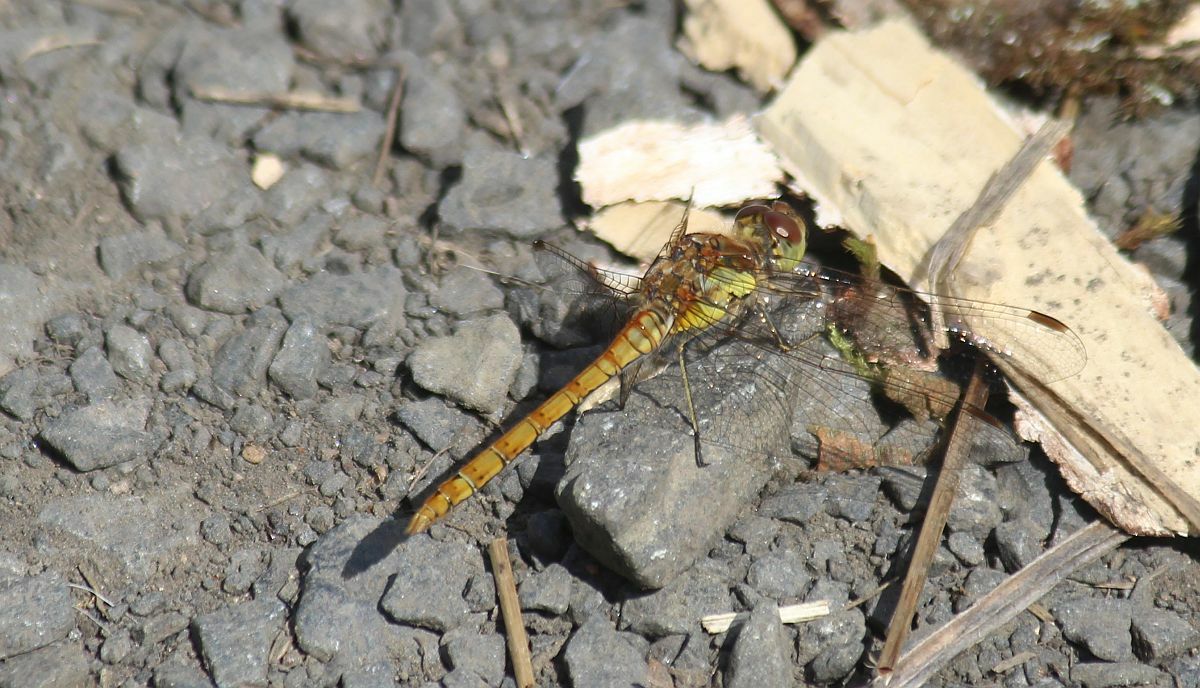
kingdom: Animalia
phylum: Arthropoda
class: Insecta
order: Odonata
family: Libellulidae
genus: Sympetrum
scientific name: Sympetrum striolatum
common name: Common darter
